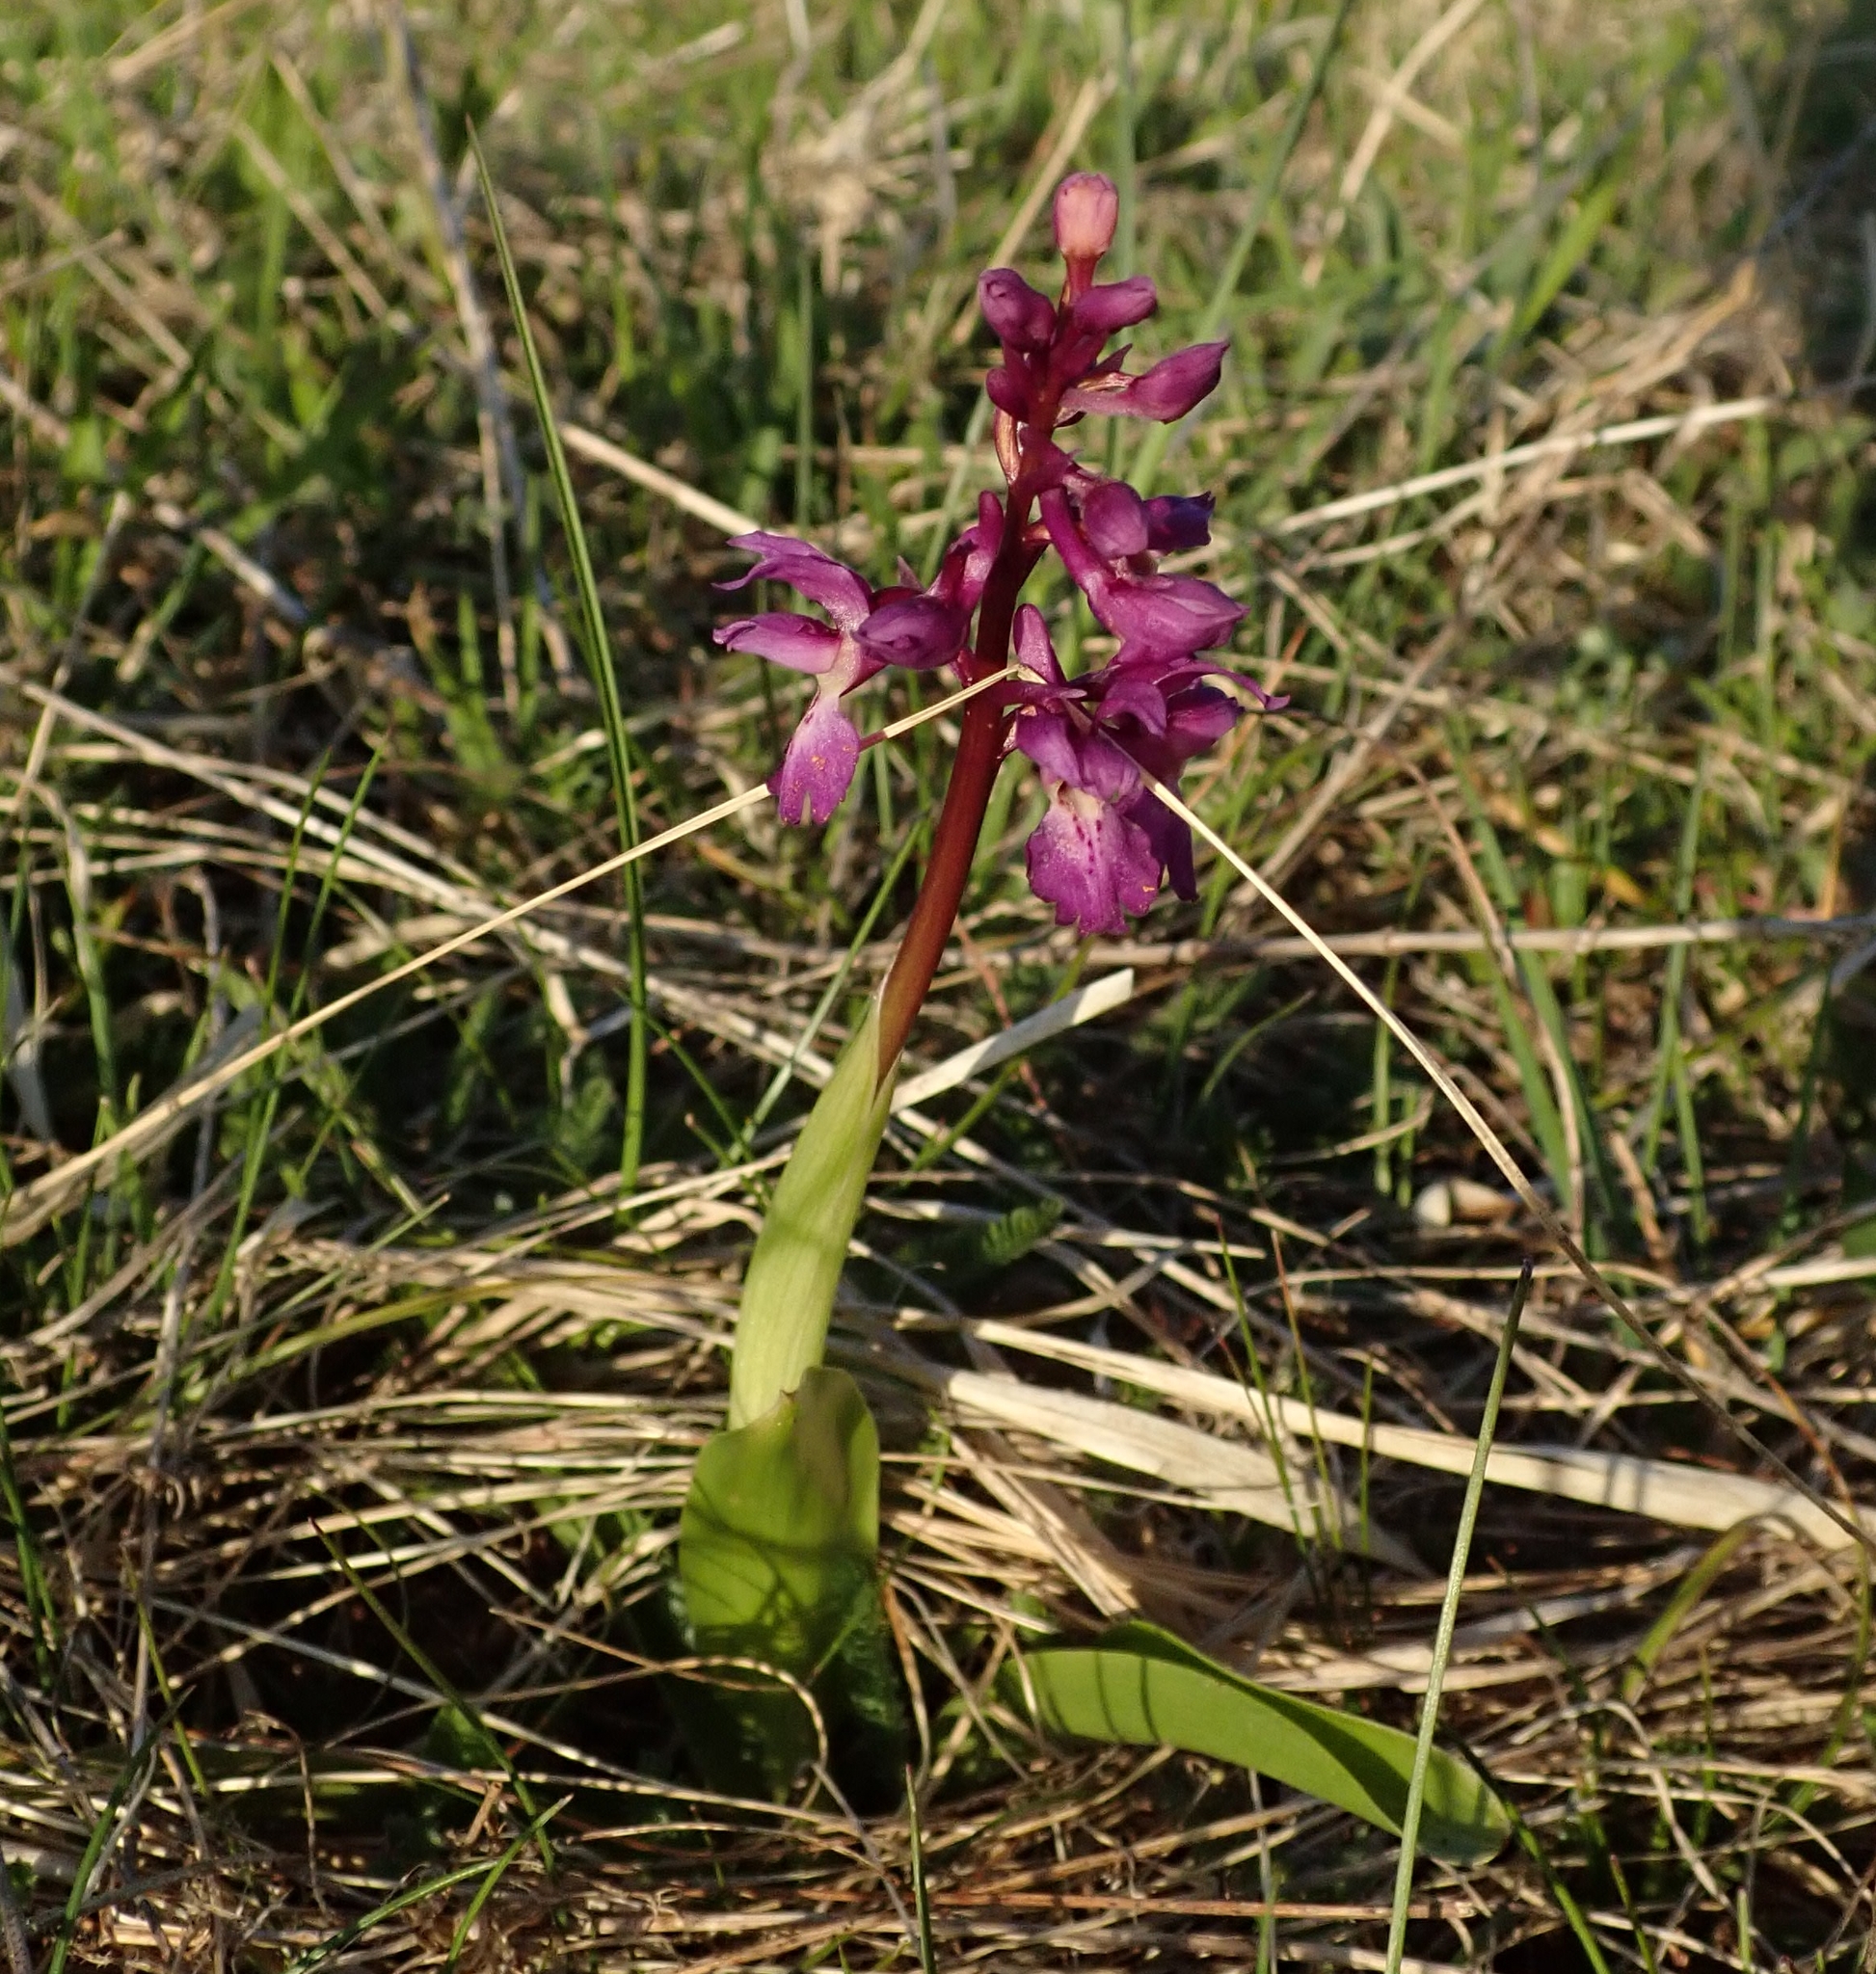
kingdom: Plantae
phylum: Tracheophyta
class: Liliopsida
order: Asparagales
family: Orchidaceae
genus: Orchis
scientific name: Orchis mascula
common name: Early-purple orchid
